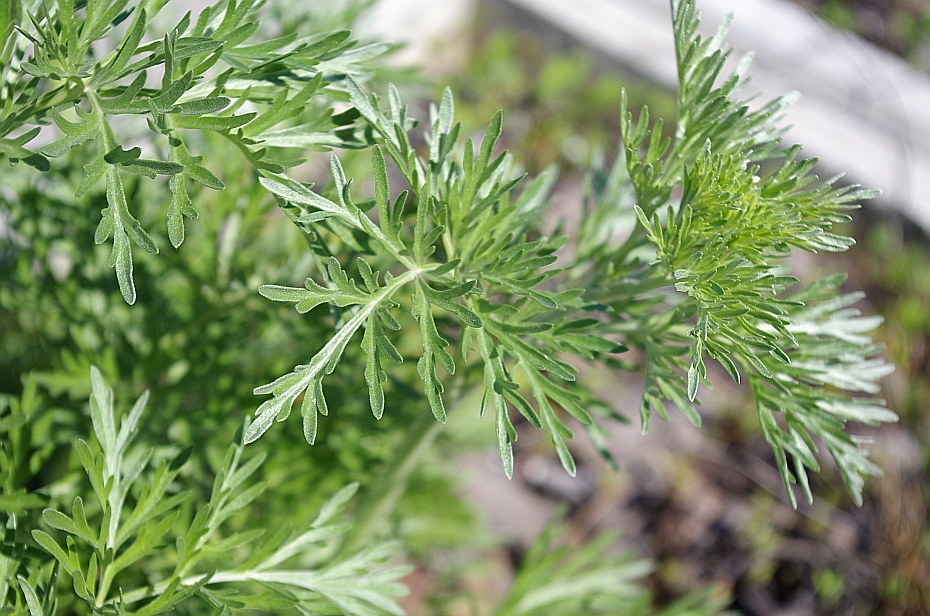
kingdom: Plantae
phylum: Tracheophyta
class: Magnoliopsida
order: Asterales
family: Asteraceae
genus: Artemisia
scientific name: Artemisia absinthium
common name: Wormwood
